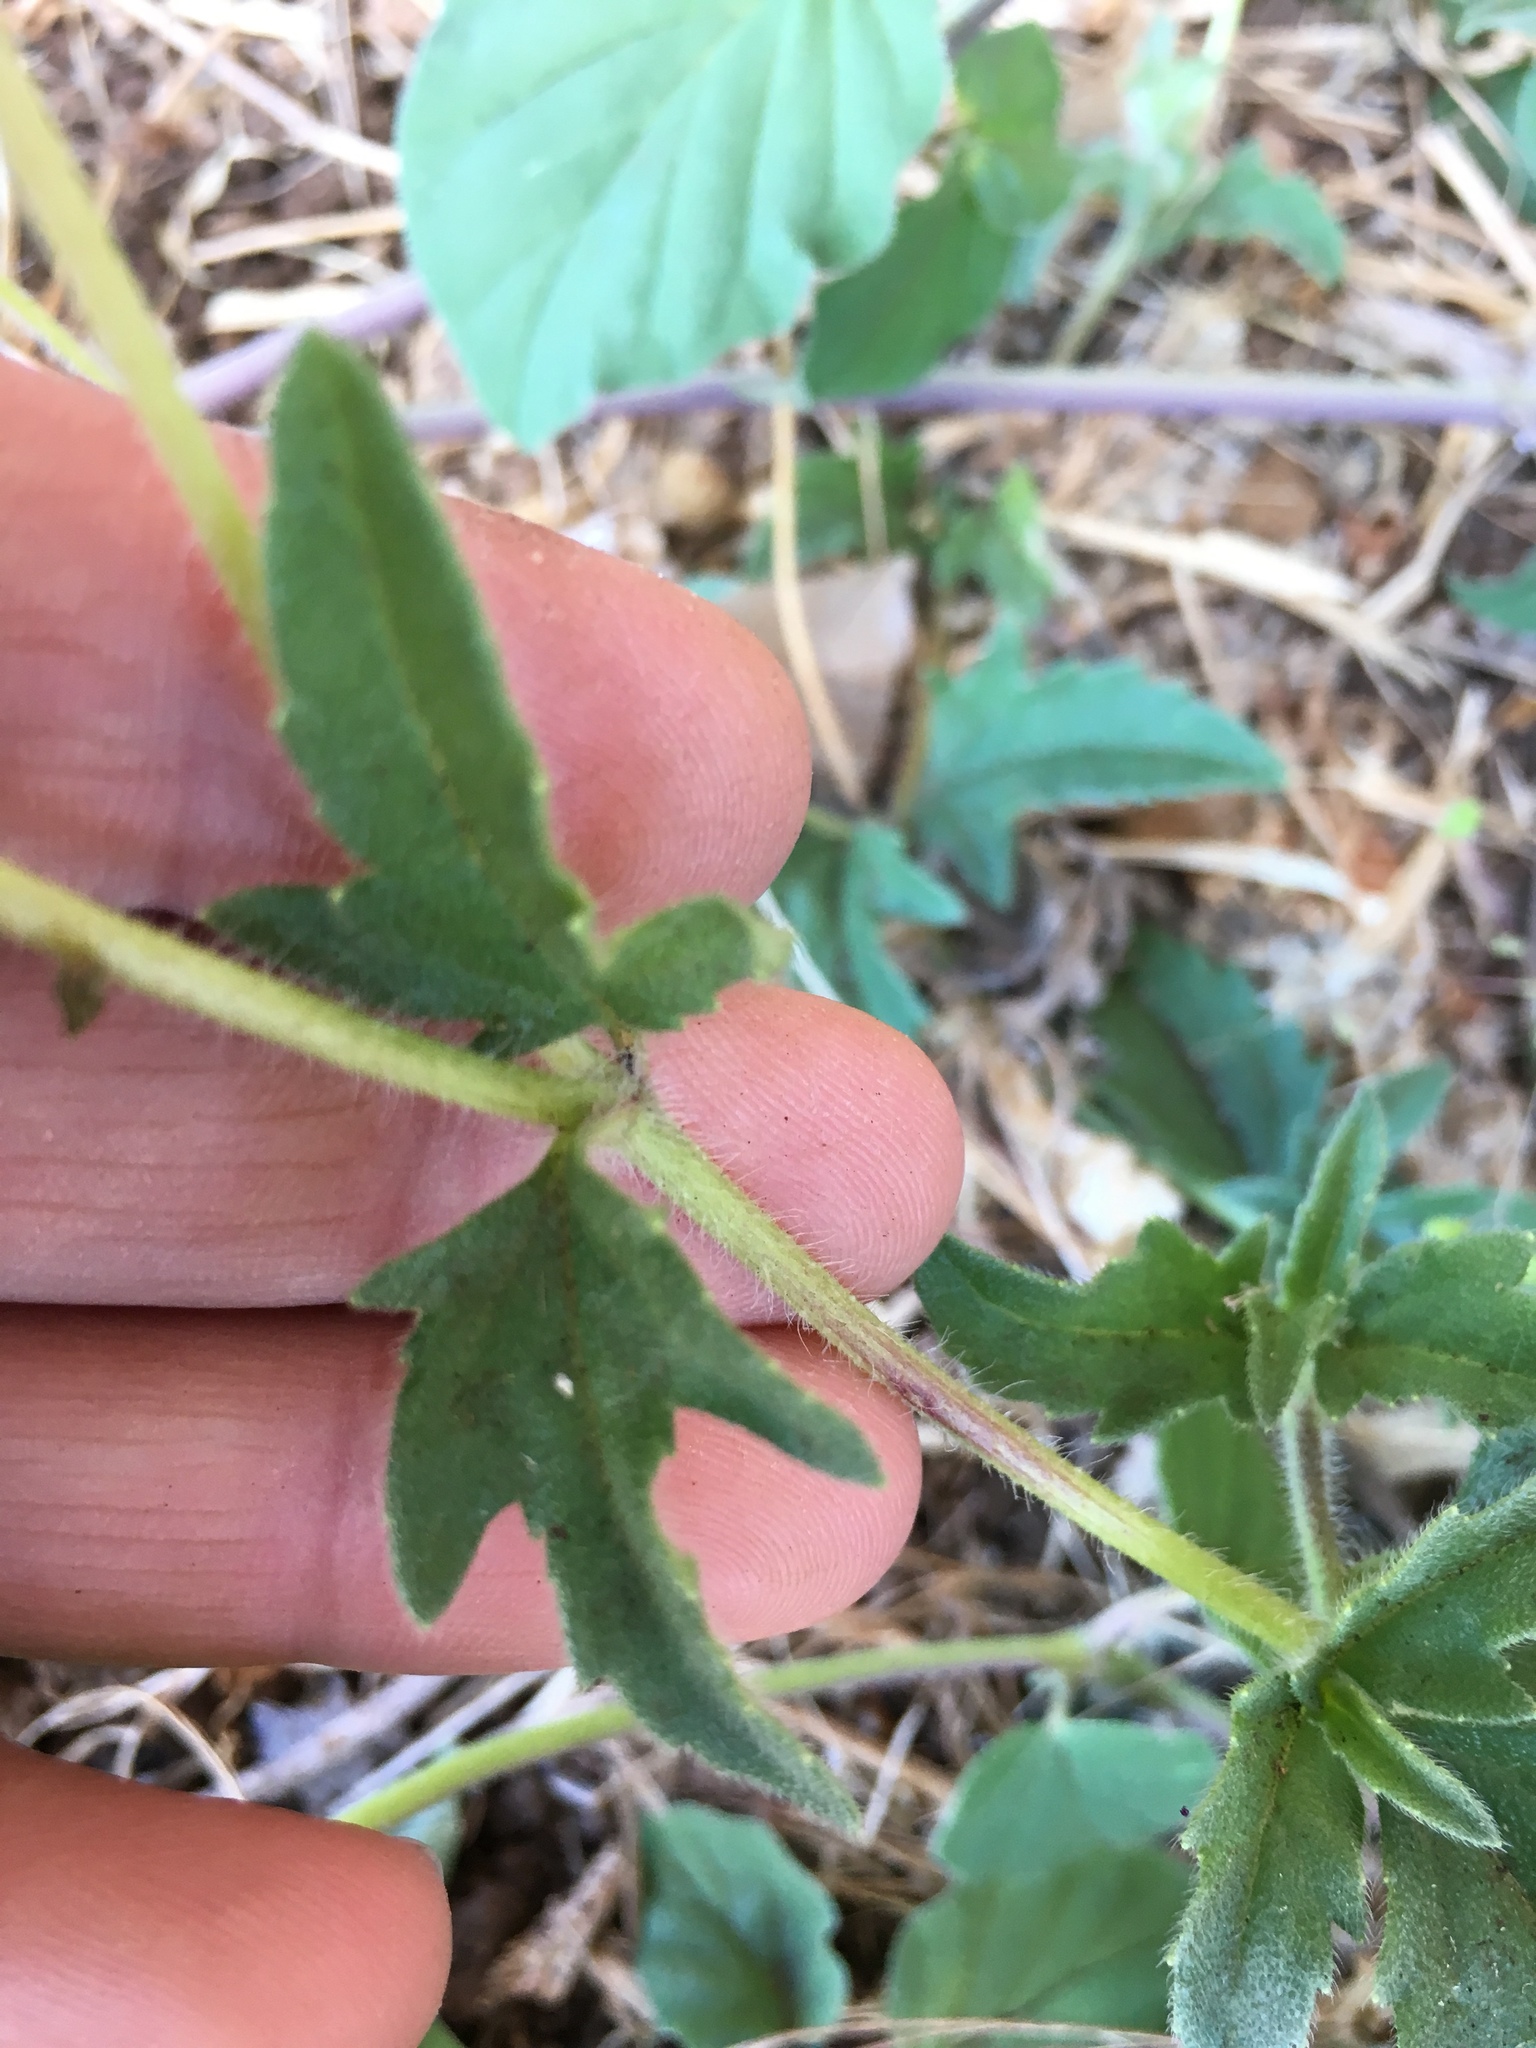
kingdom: Plantae
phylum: Tracheophyta
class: Magnoliopsida
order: Asterales
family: Asteraceae
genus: Tridax
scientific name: Tridax procumbens
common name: Coatbuttons
